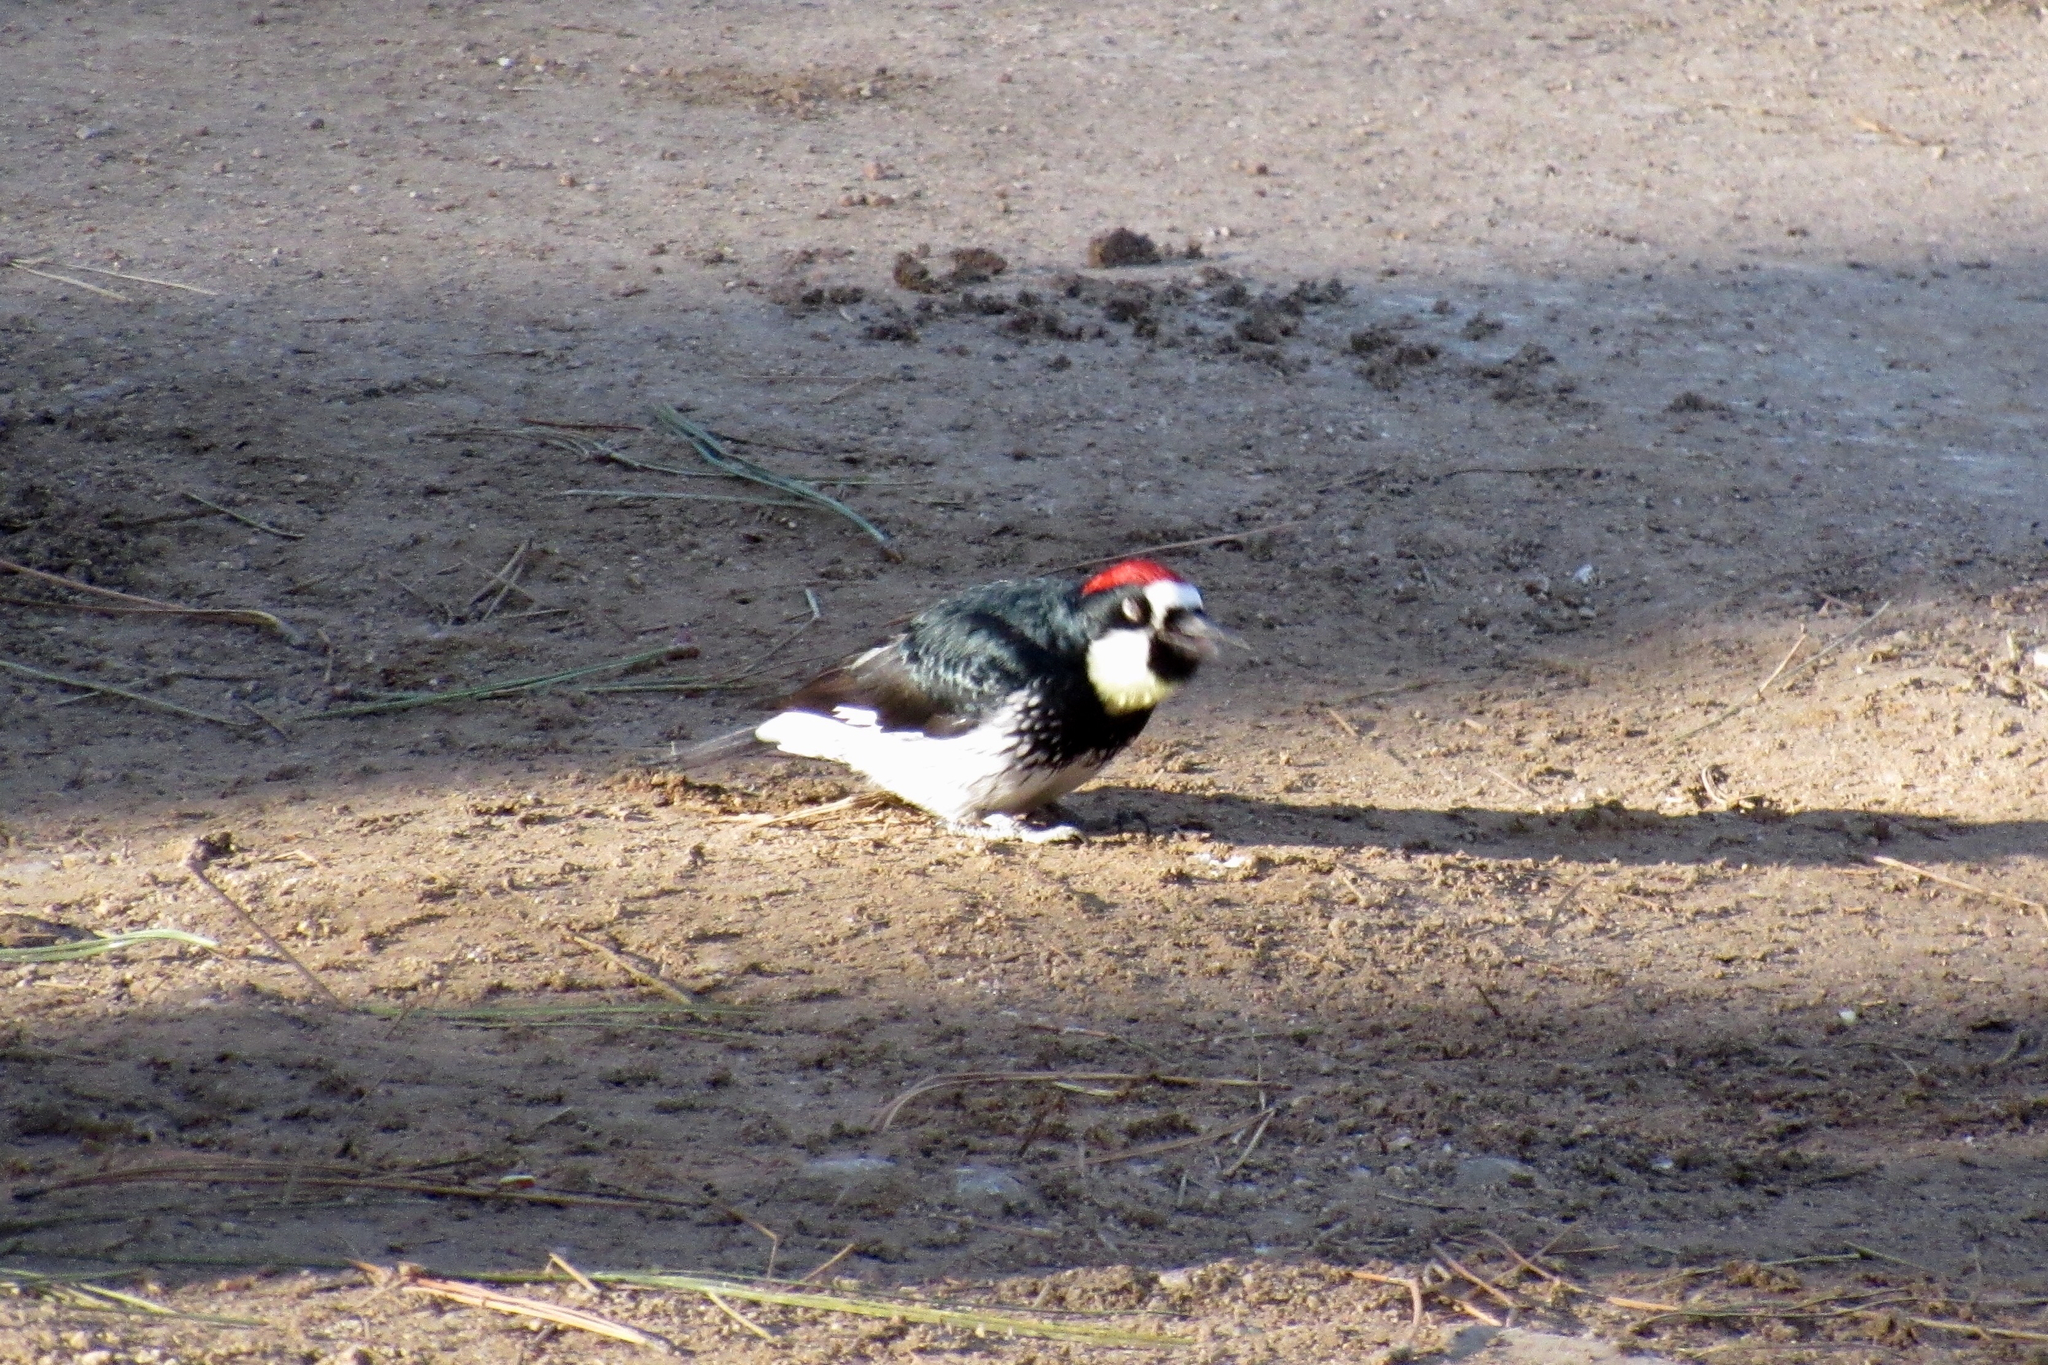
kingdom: Animalia
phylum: Chordata
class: Aves
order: Piciformes
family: Picidae
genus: Melanerpes
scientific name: Melanerpes formicivorus
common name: Acorn woodpecker
